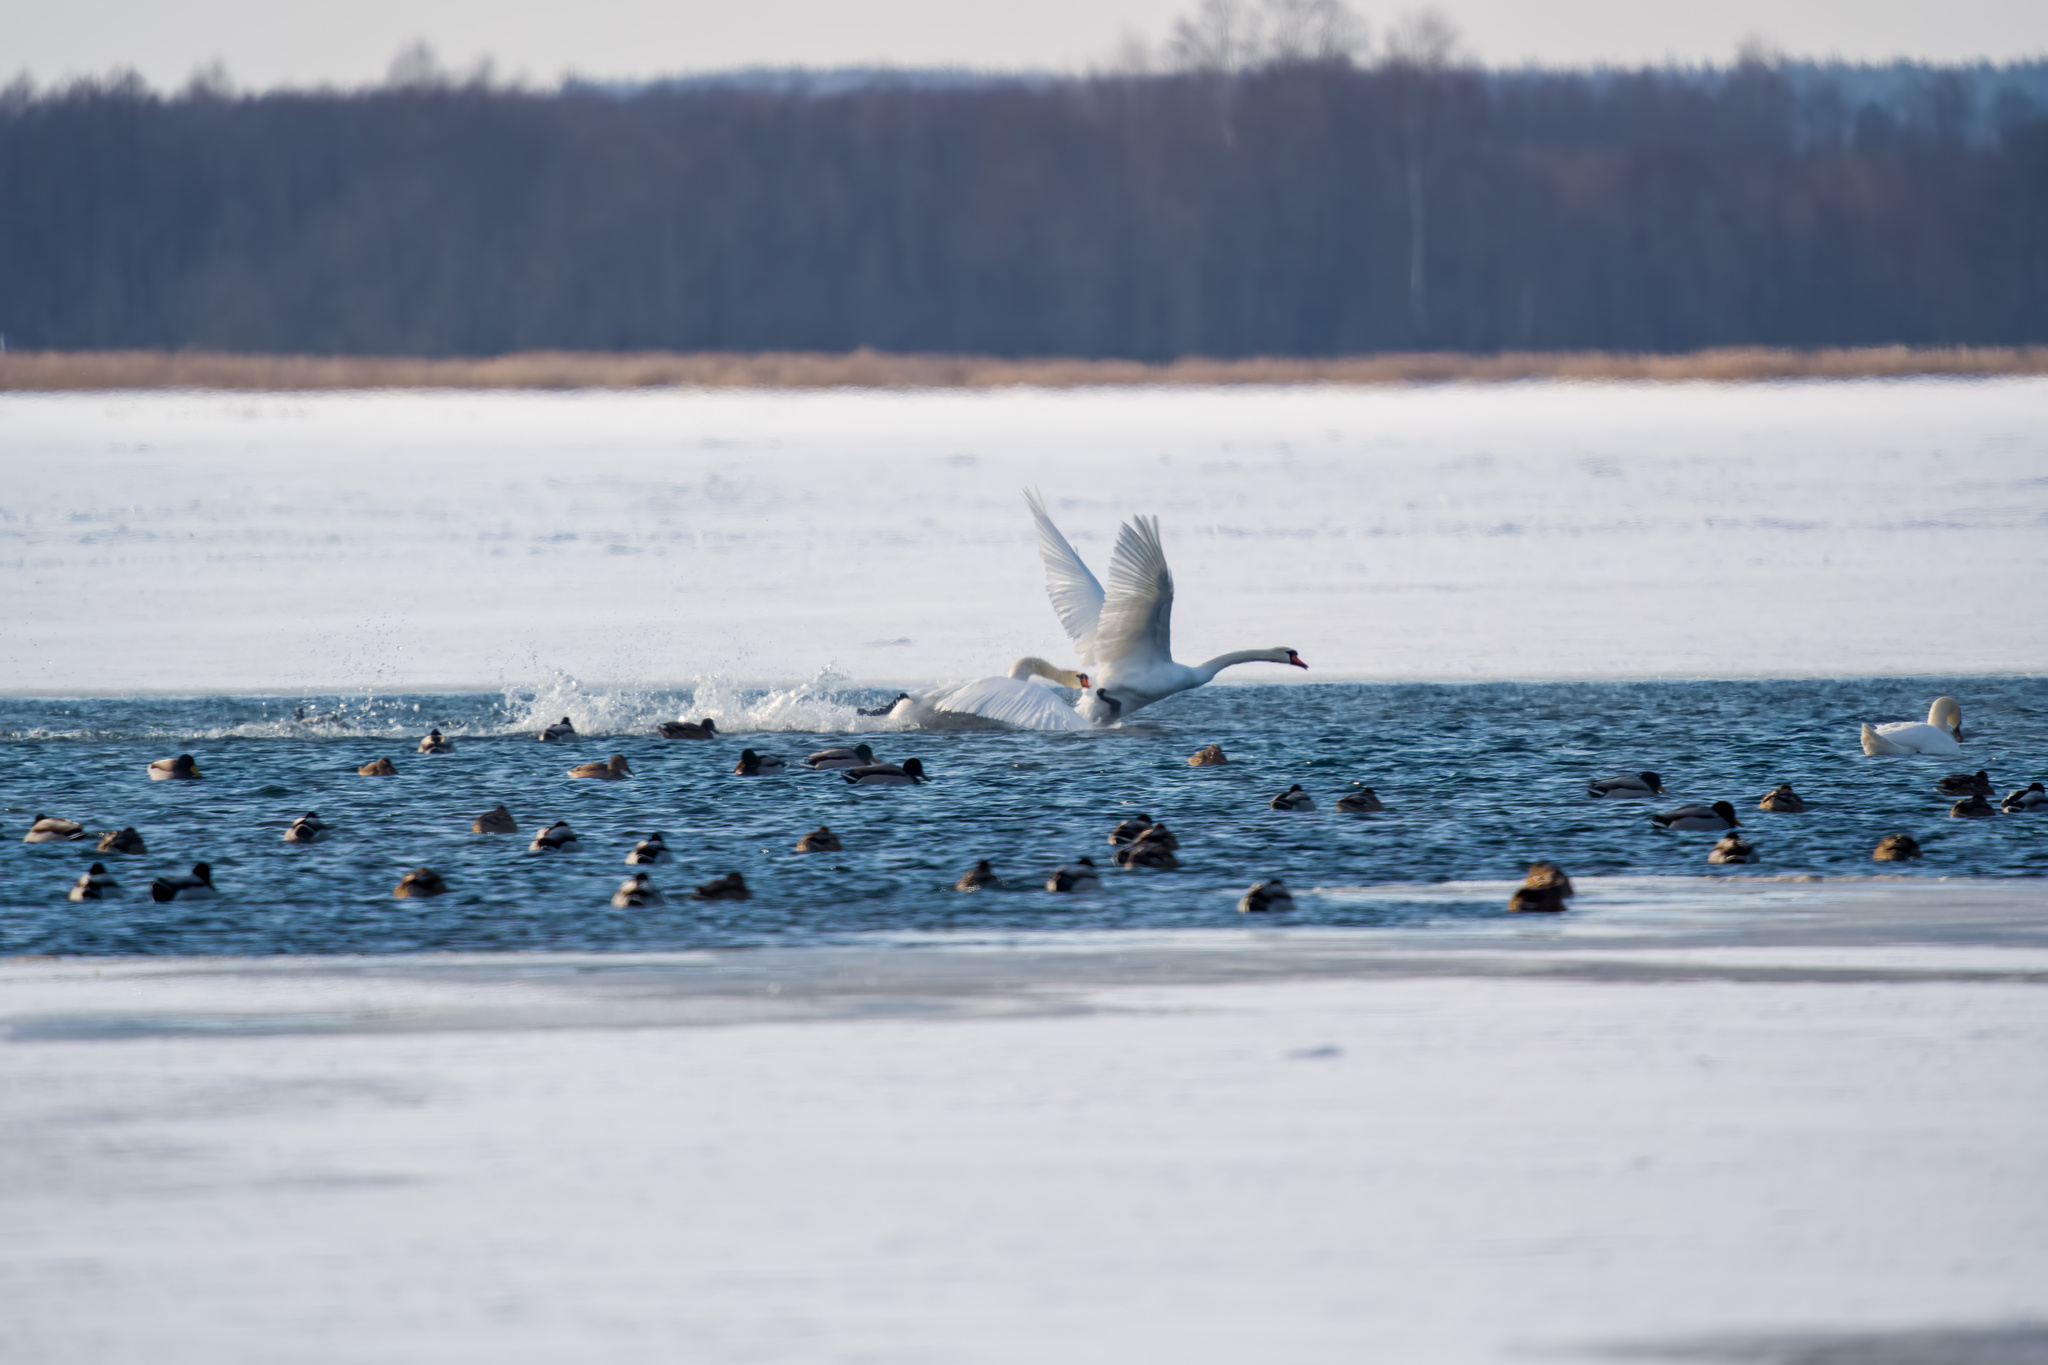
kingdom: Animalia
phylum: Chordata
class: Aves
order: Anseriformes
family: Anatidae
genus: Anas
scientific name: Anas platyrhynchos
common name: Mallard
